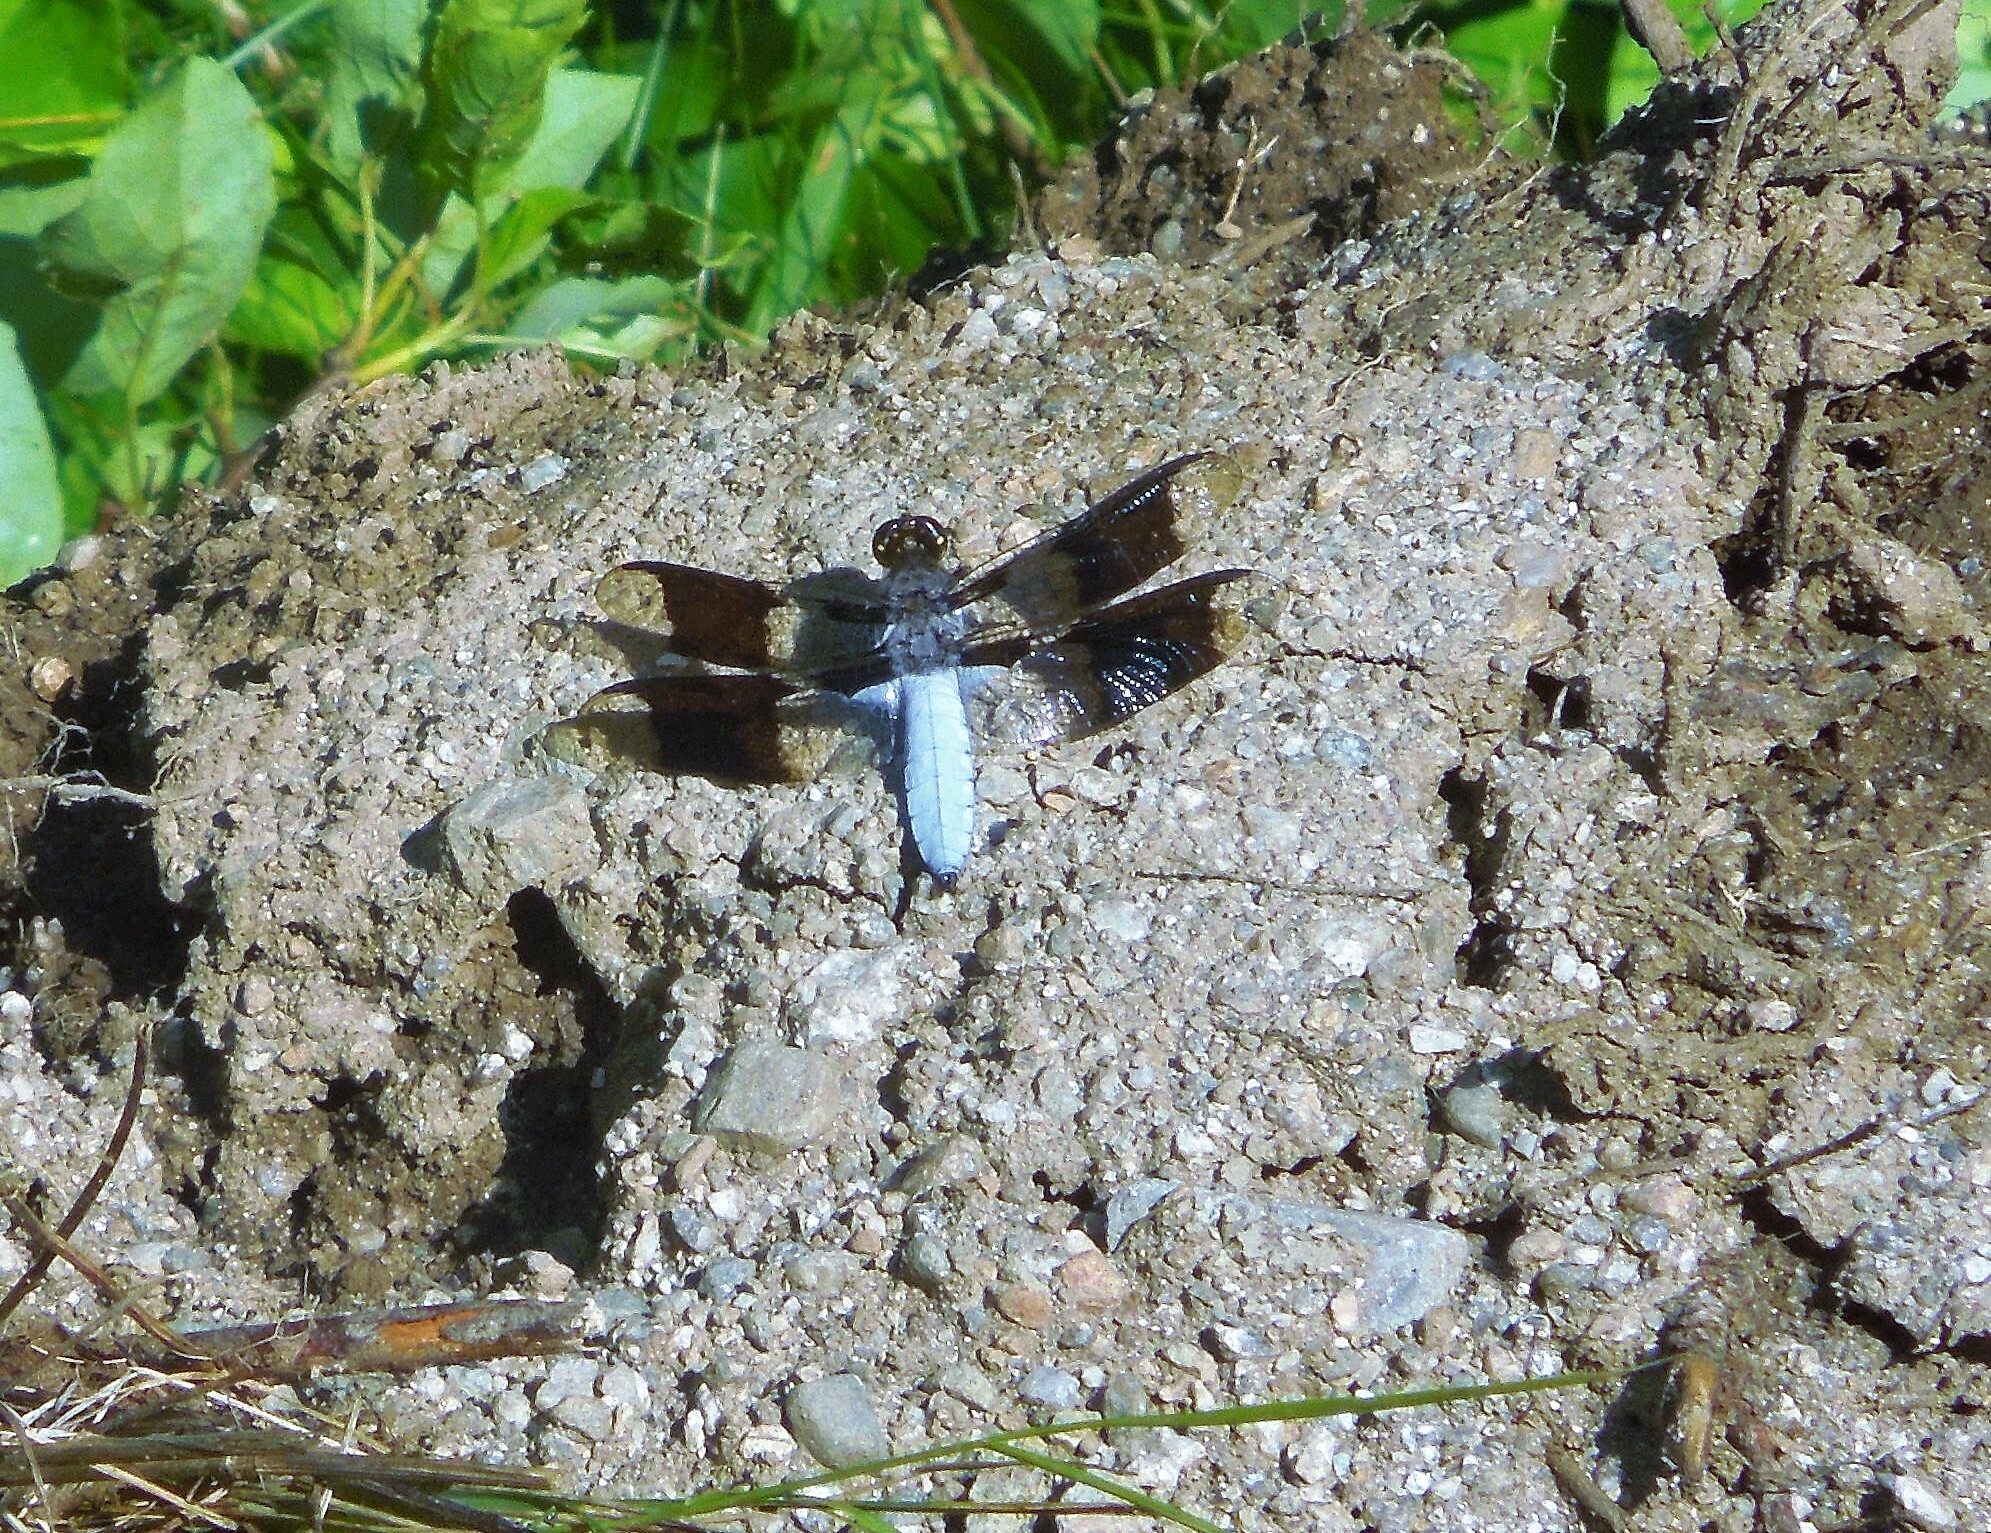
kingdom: Animalia
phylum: Arthropoda
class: Insecta
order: Odonata
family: Libellulidae
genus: Plathemis
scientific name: Plathemis lydia
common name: Common whitetail
